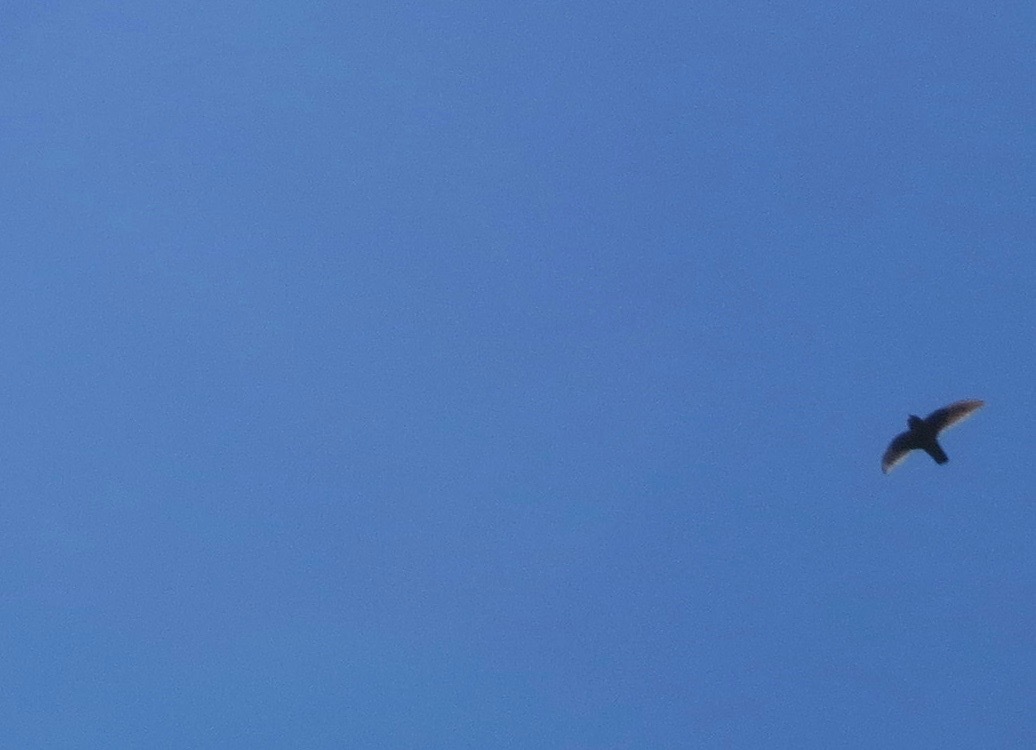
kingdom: Animalia
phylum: Chordata
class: Aves
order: Apodiformes
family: Apodidae
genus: Cypseloides
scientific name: Cypseloides niger
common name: Black swift
